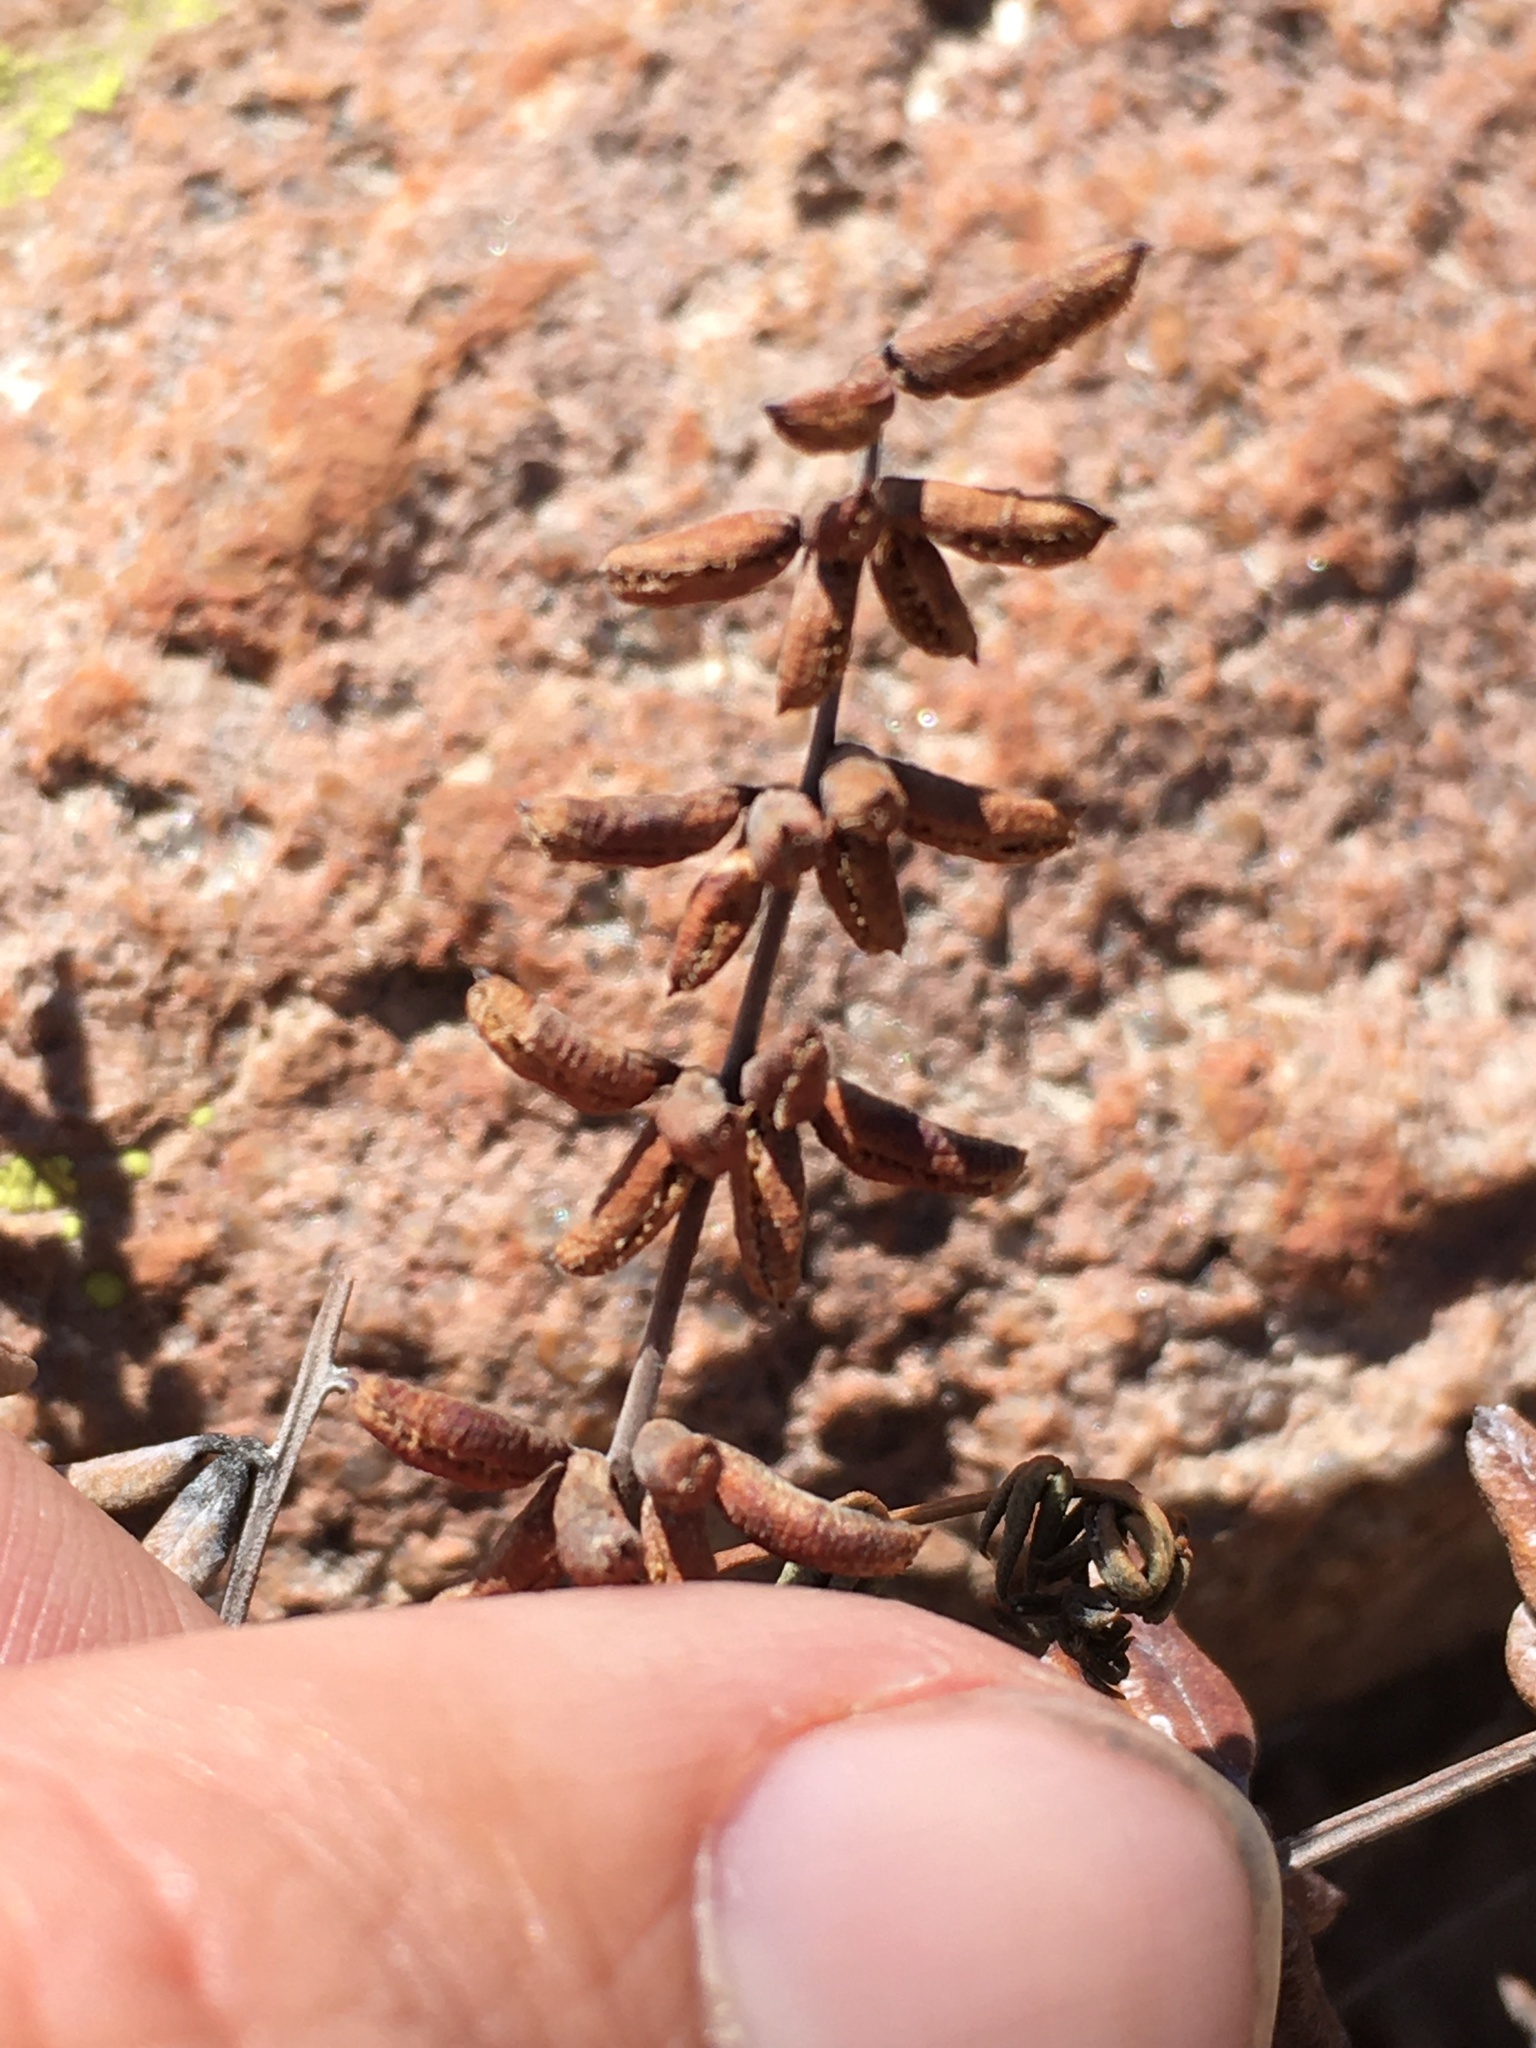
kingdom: Plantae
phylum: Tracheophyta
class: Polypodiopsida
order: Polypodiales
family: Pteridaceae
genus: Pellaea
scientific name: Pellaea ternifolia
